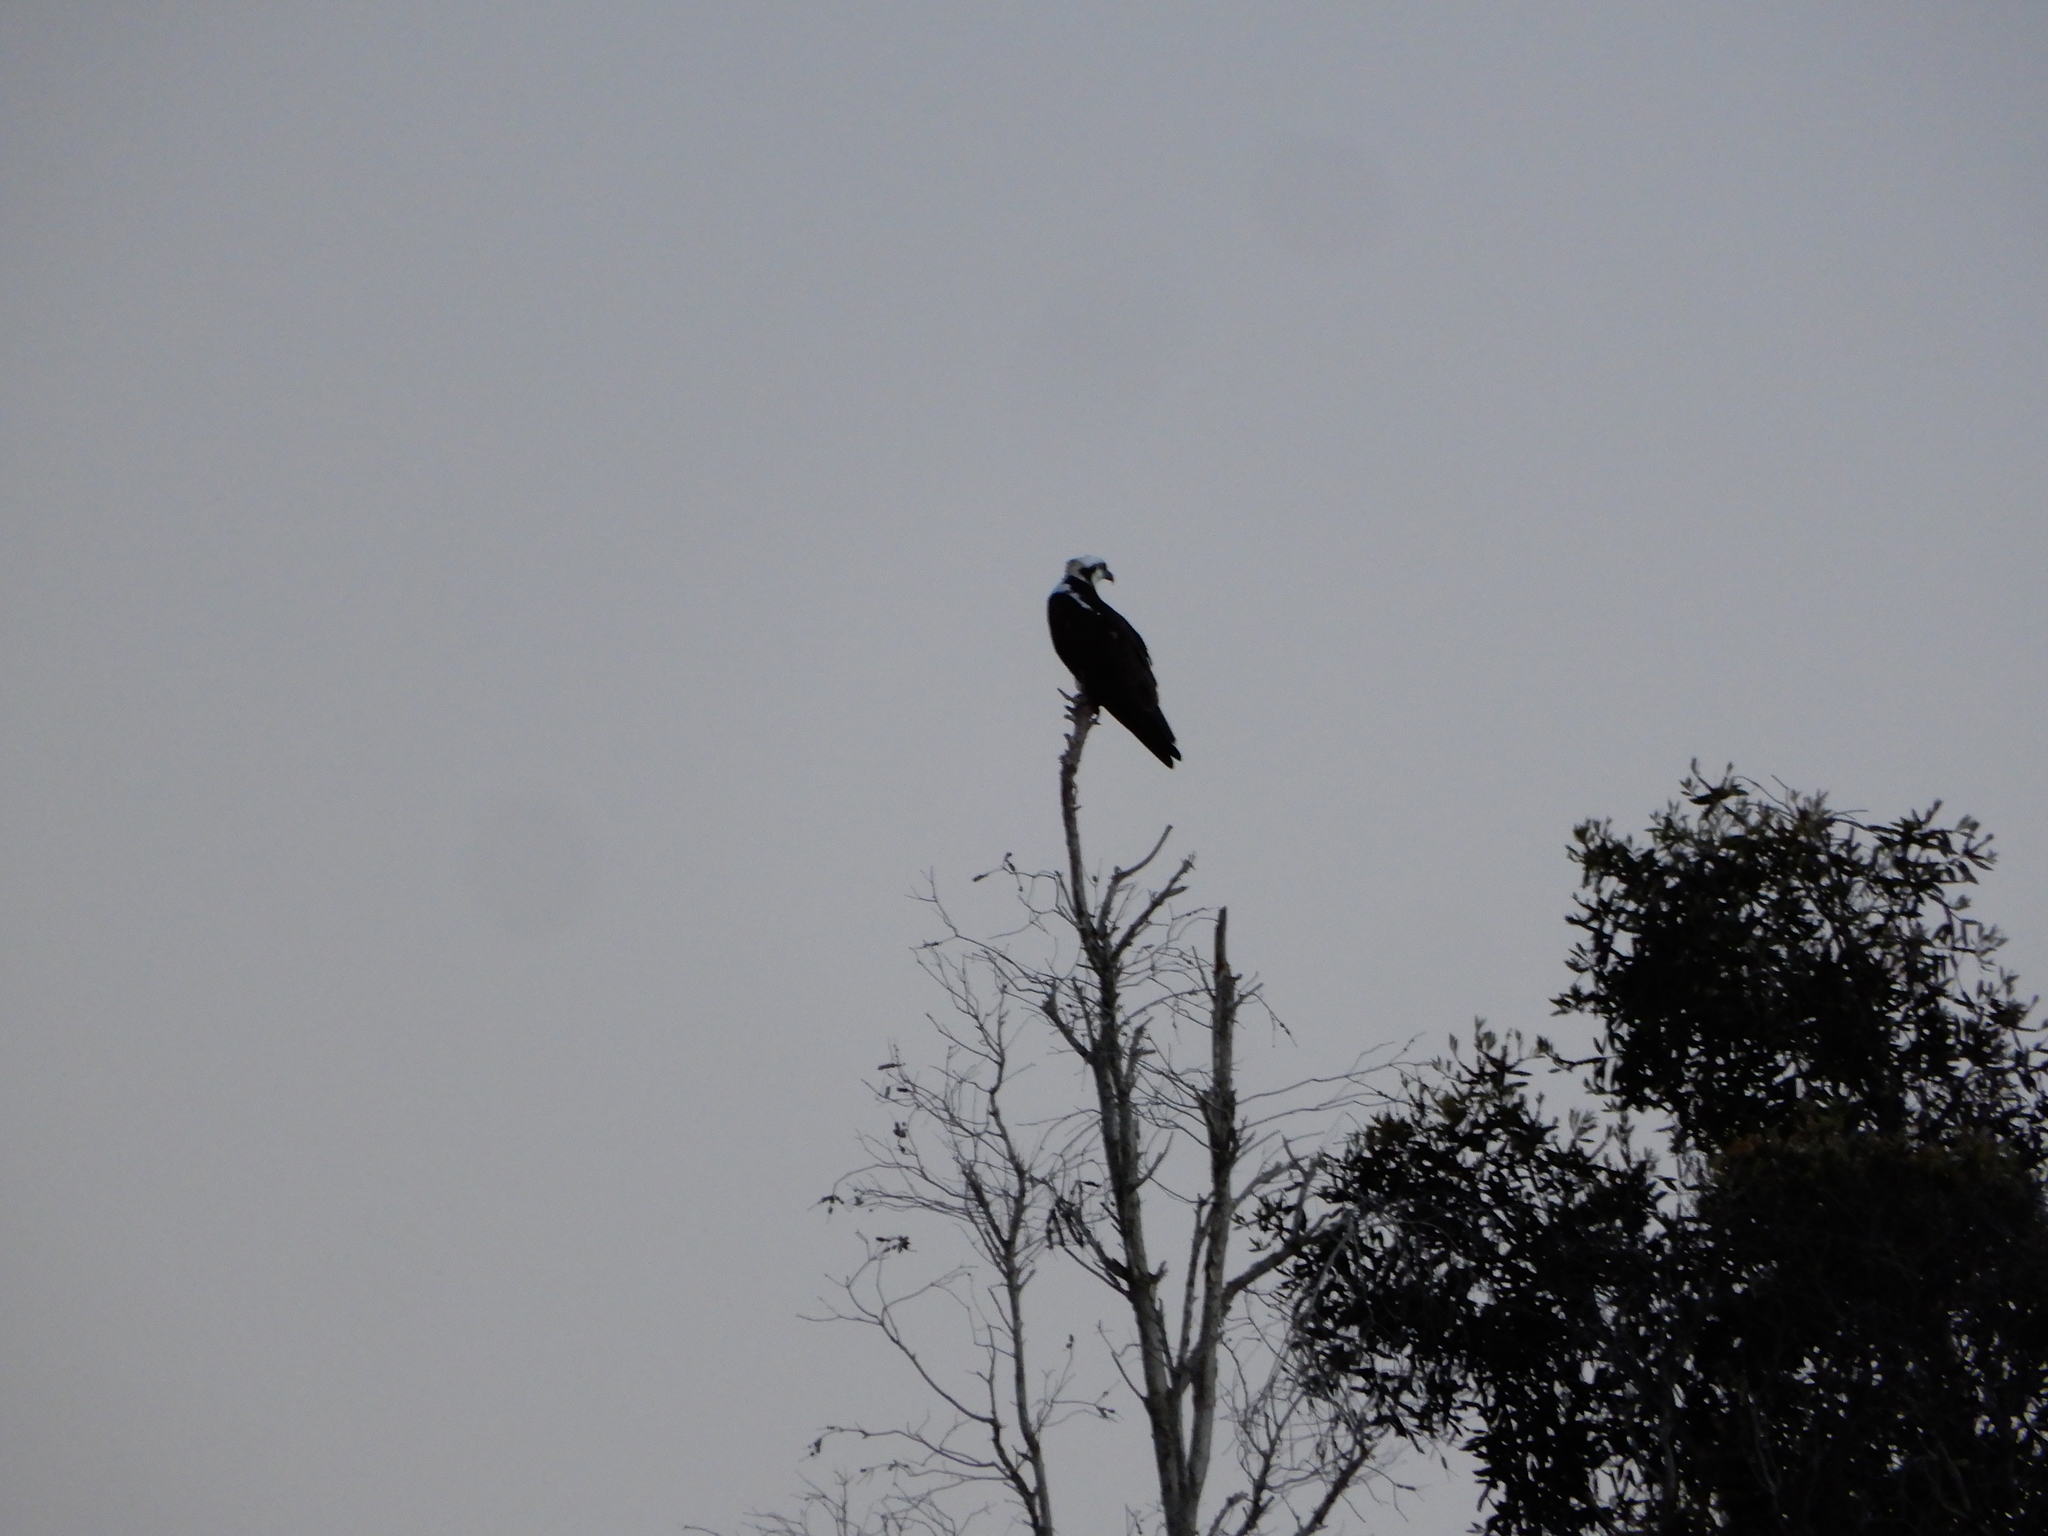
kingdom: Animalia
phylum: Chordata
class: Aves
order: Accipitriformes
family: Pandionidae
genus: Pandion
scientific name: Pandion haliaetus
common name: Osprey
